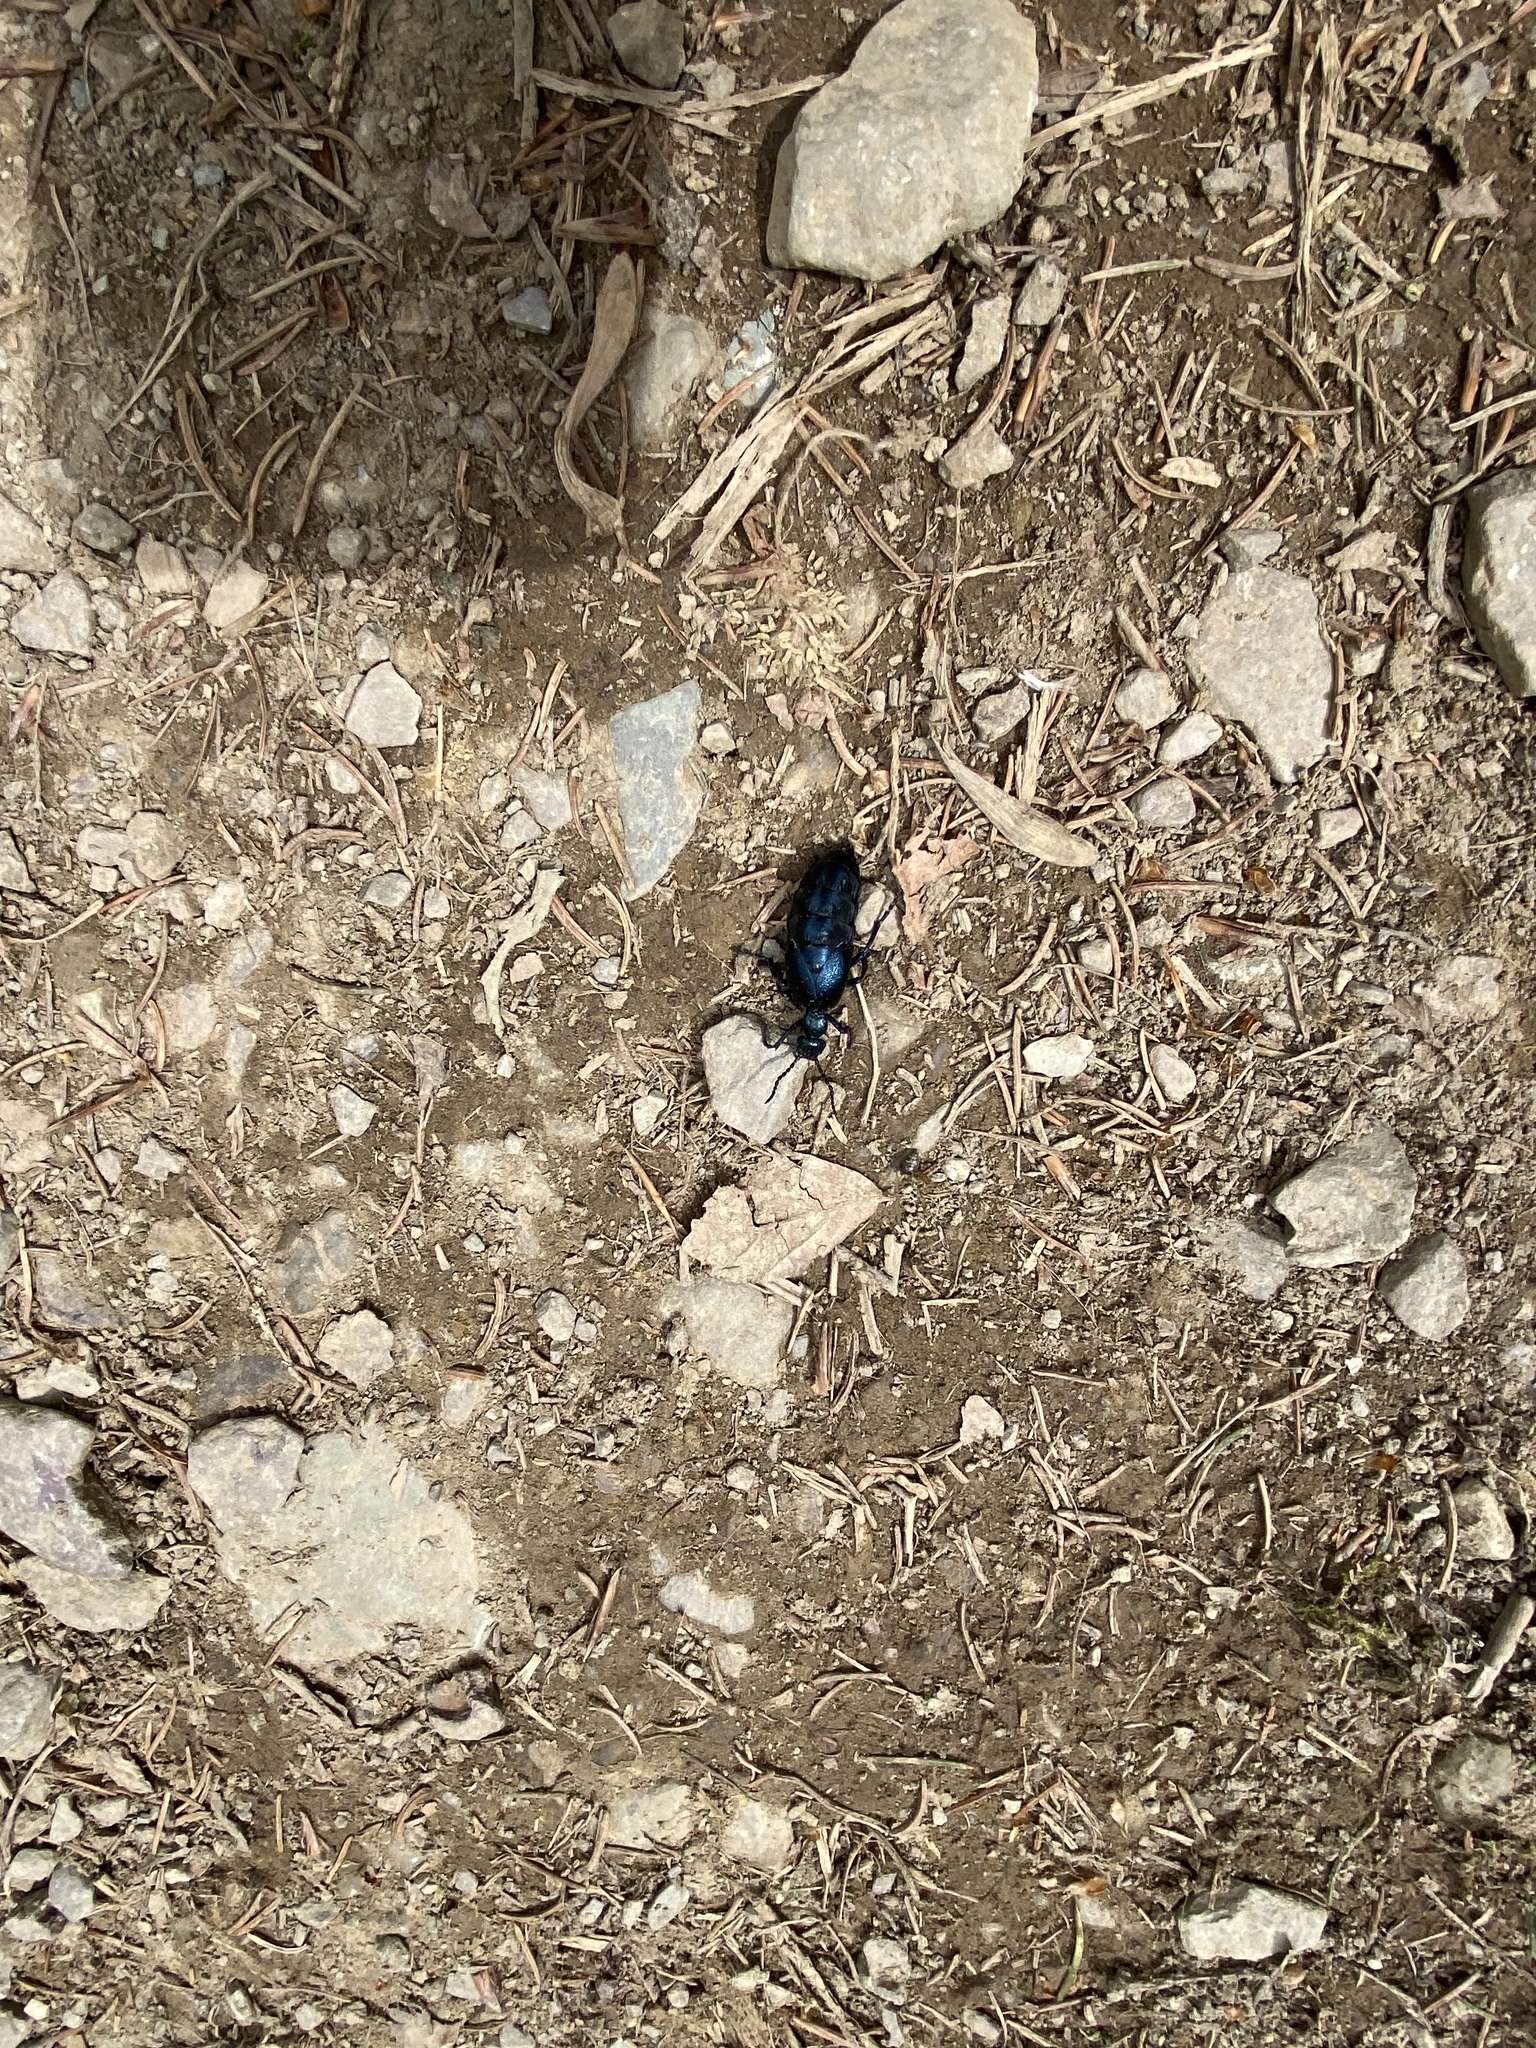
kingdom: Animalia
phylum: Arthropoda
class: Insecta
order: Coleoptera
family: Meloidae
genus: Meloe
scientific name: Meloe violaceus
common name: Violet oil-beetle
